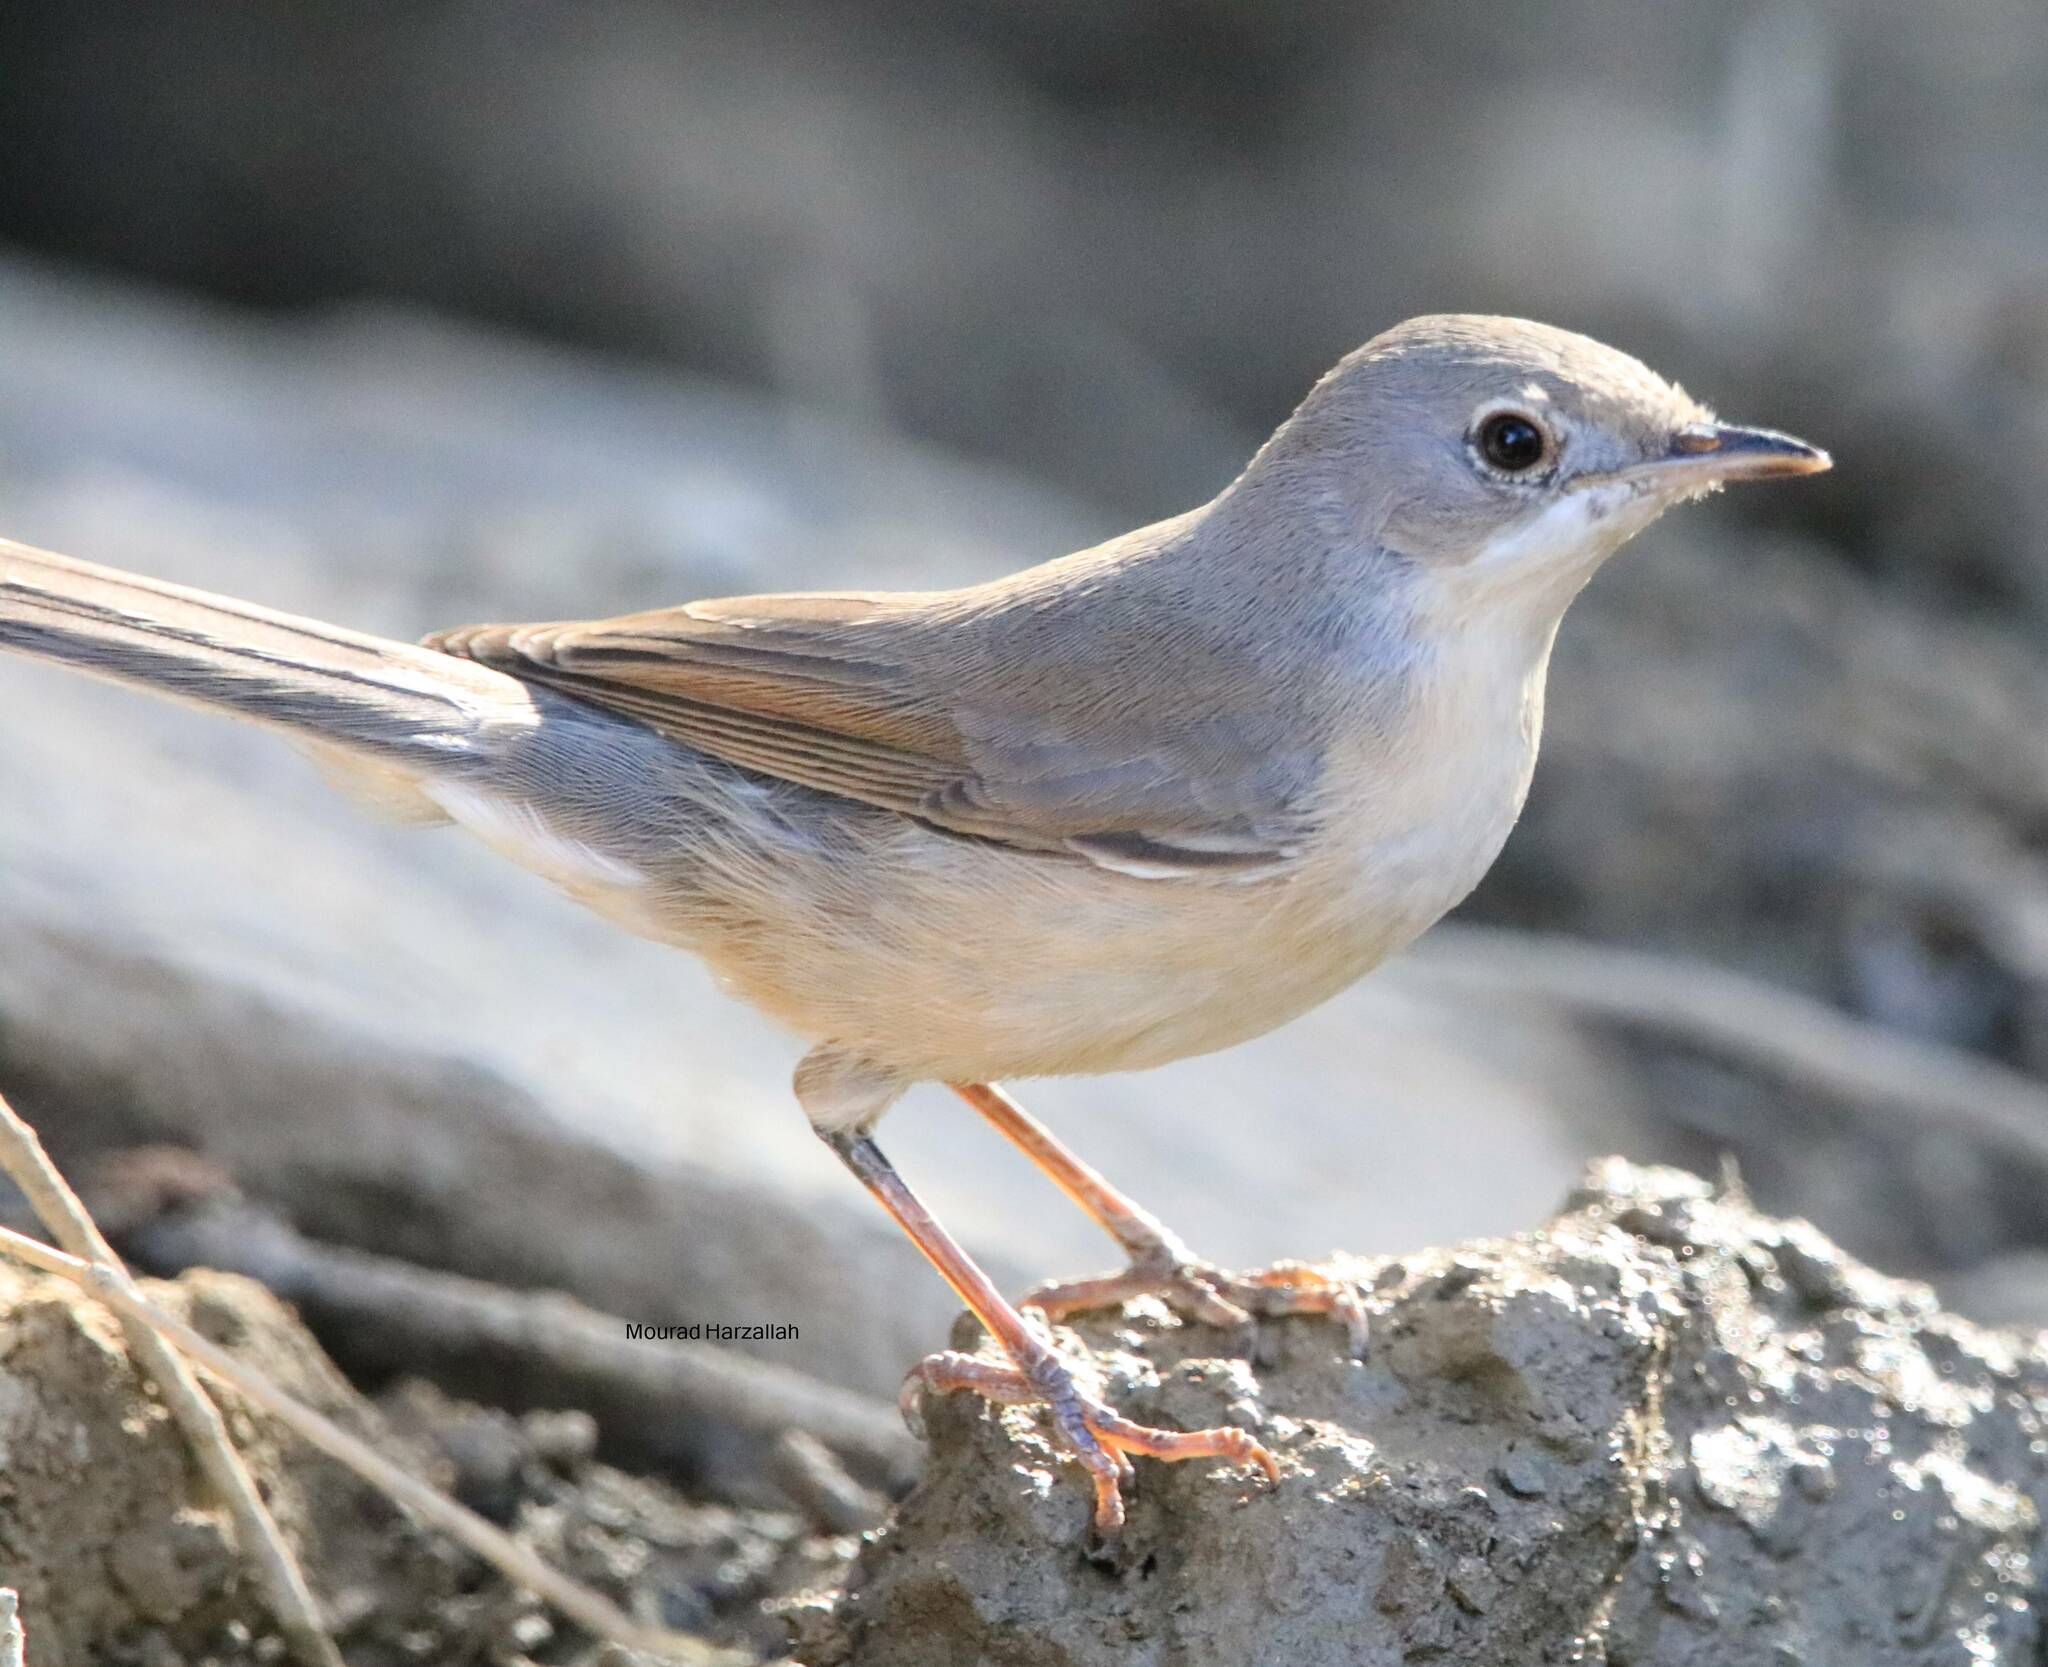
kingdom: Animalia
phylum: Chordata
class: Aves
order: Passeriformes
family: Sylviidae
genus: Curruca
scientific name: Curruca iberiae
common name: Western subalpine warbler
